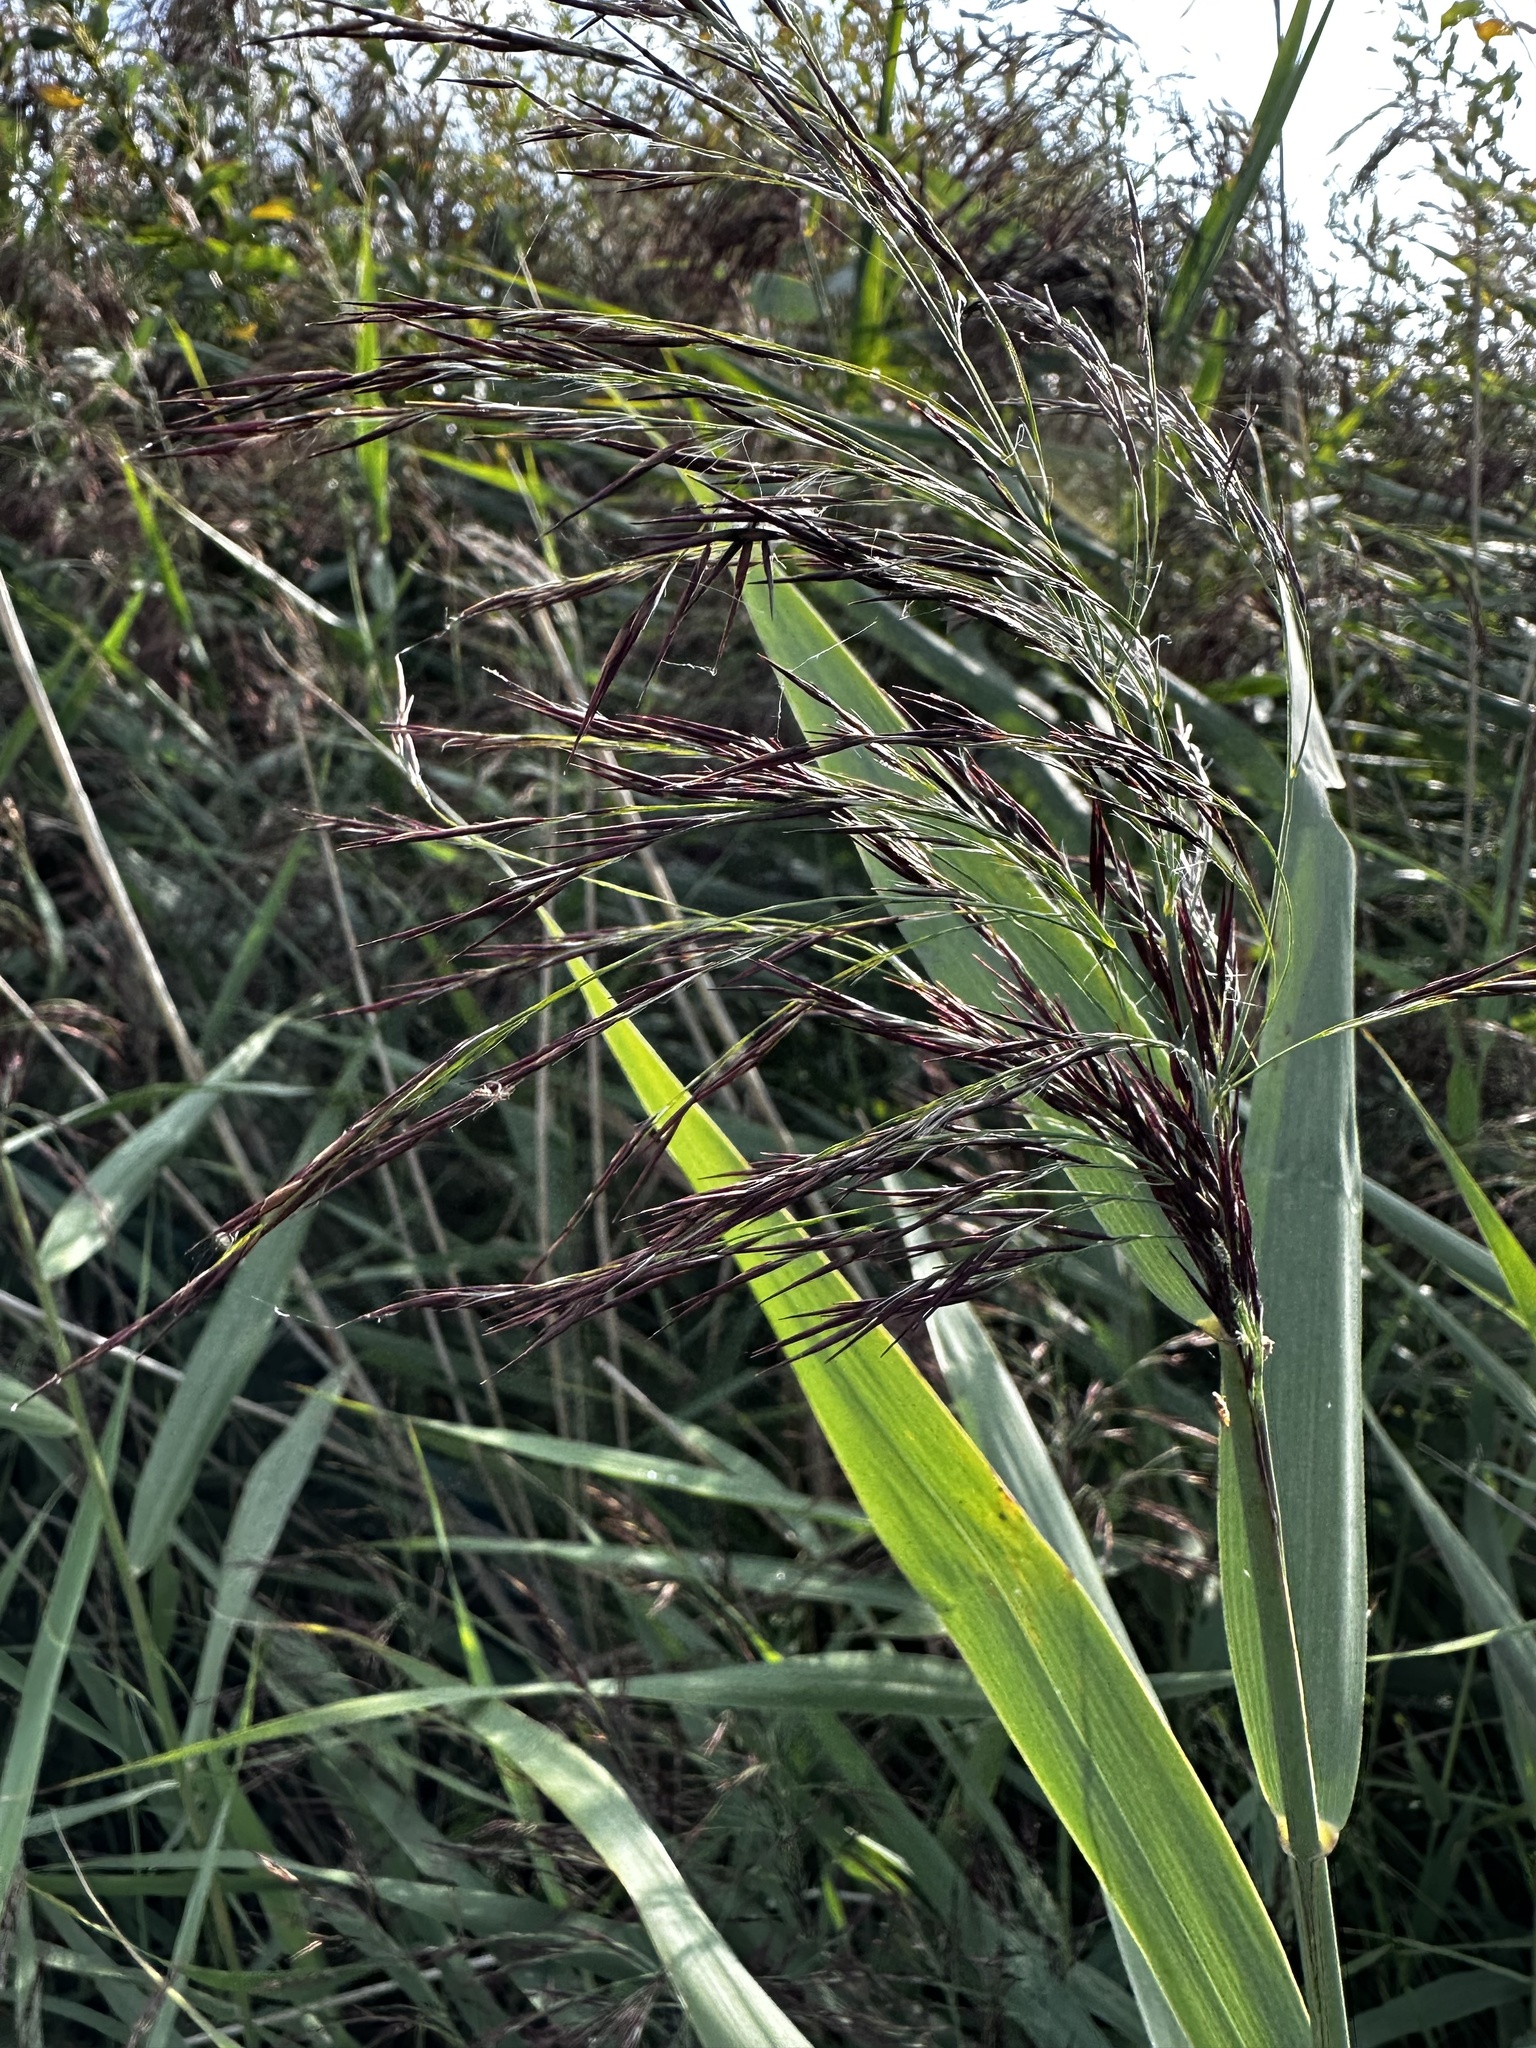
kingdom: Plantae
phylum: Tracheophyta
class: Liliopsida
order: Poales
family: Poaceae
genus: Phragmites
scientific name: Phragmites australis
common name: Common reed
